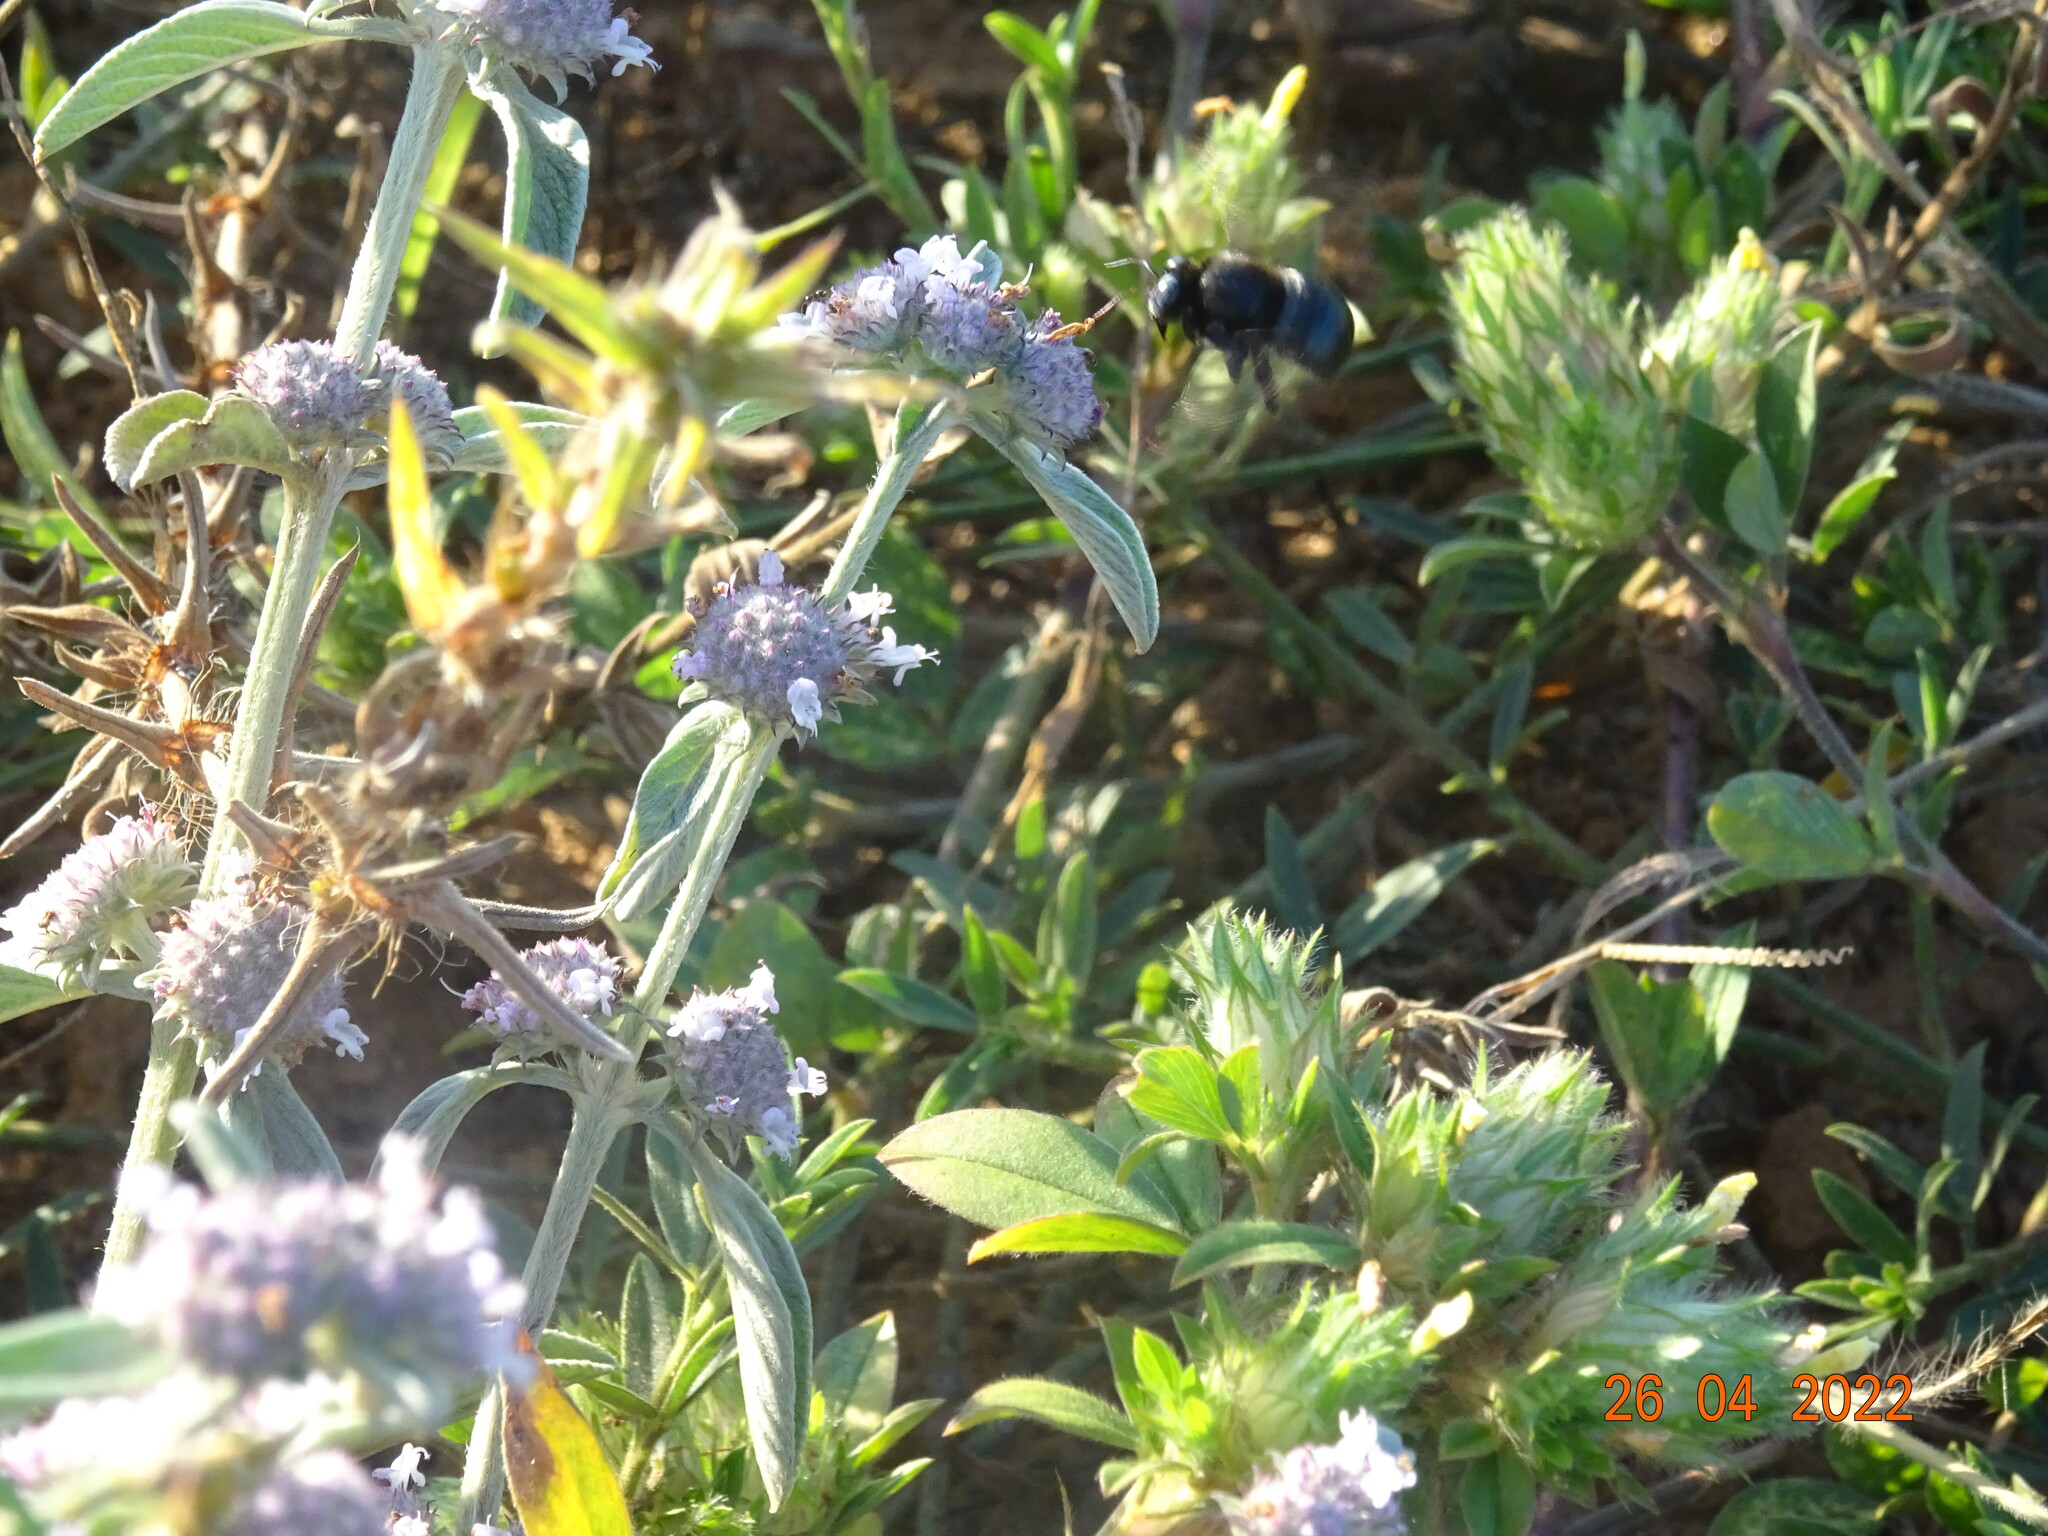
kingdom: Animalia
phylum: Arthropoda
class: Insecta
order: Hymenoptera
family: Apidae
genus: Xylocopa
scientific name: Xylocopa macrops
